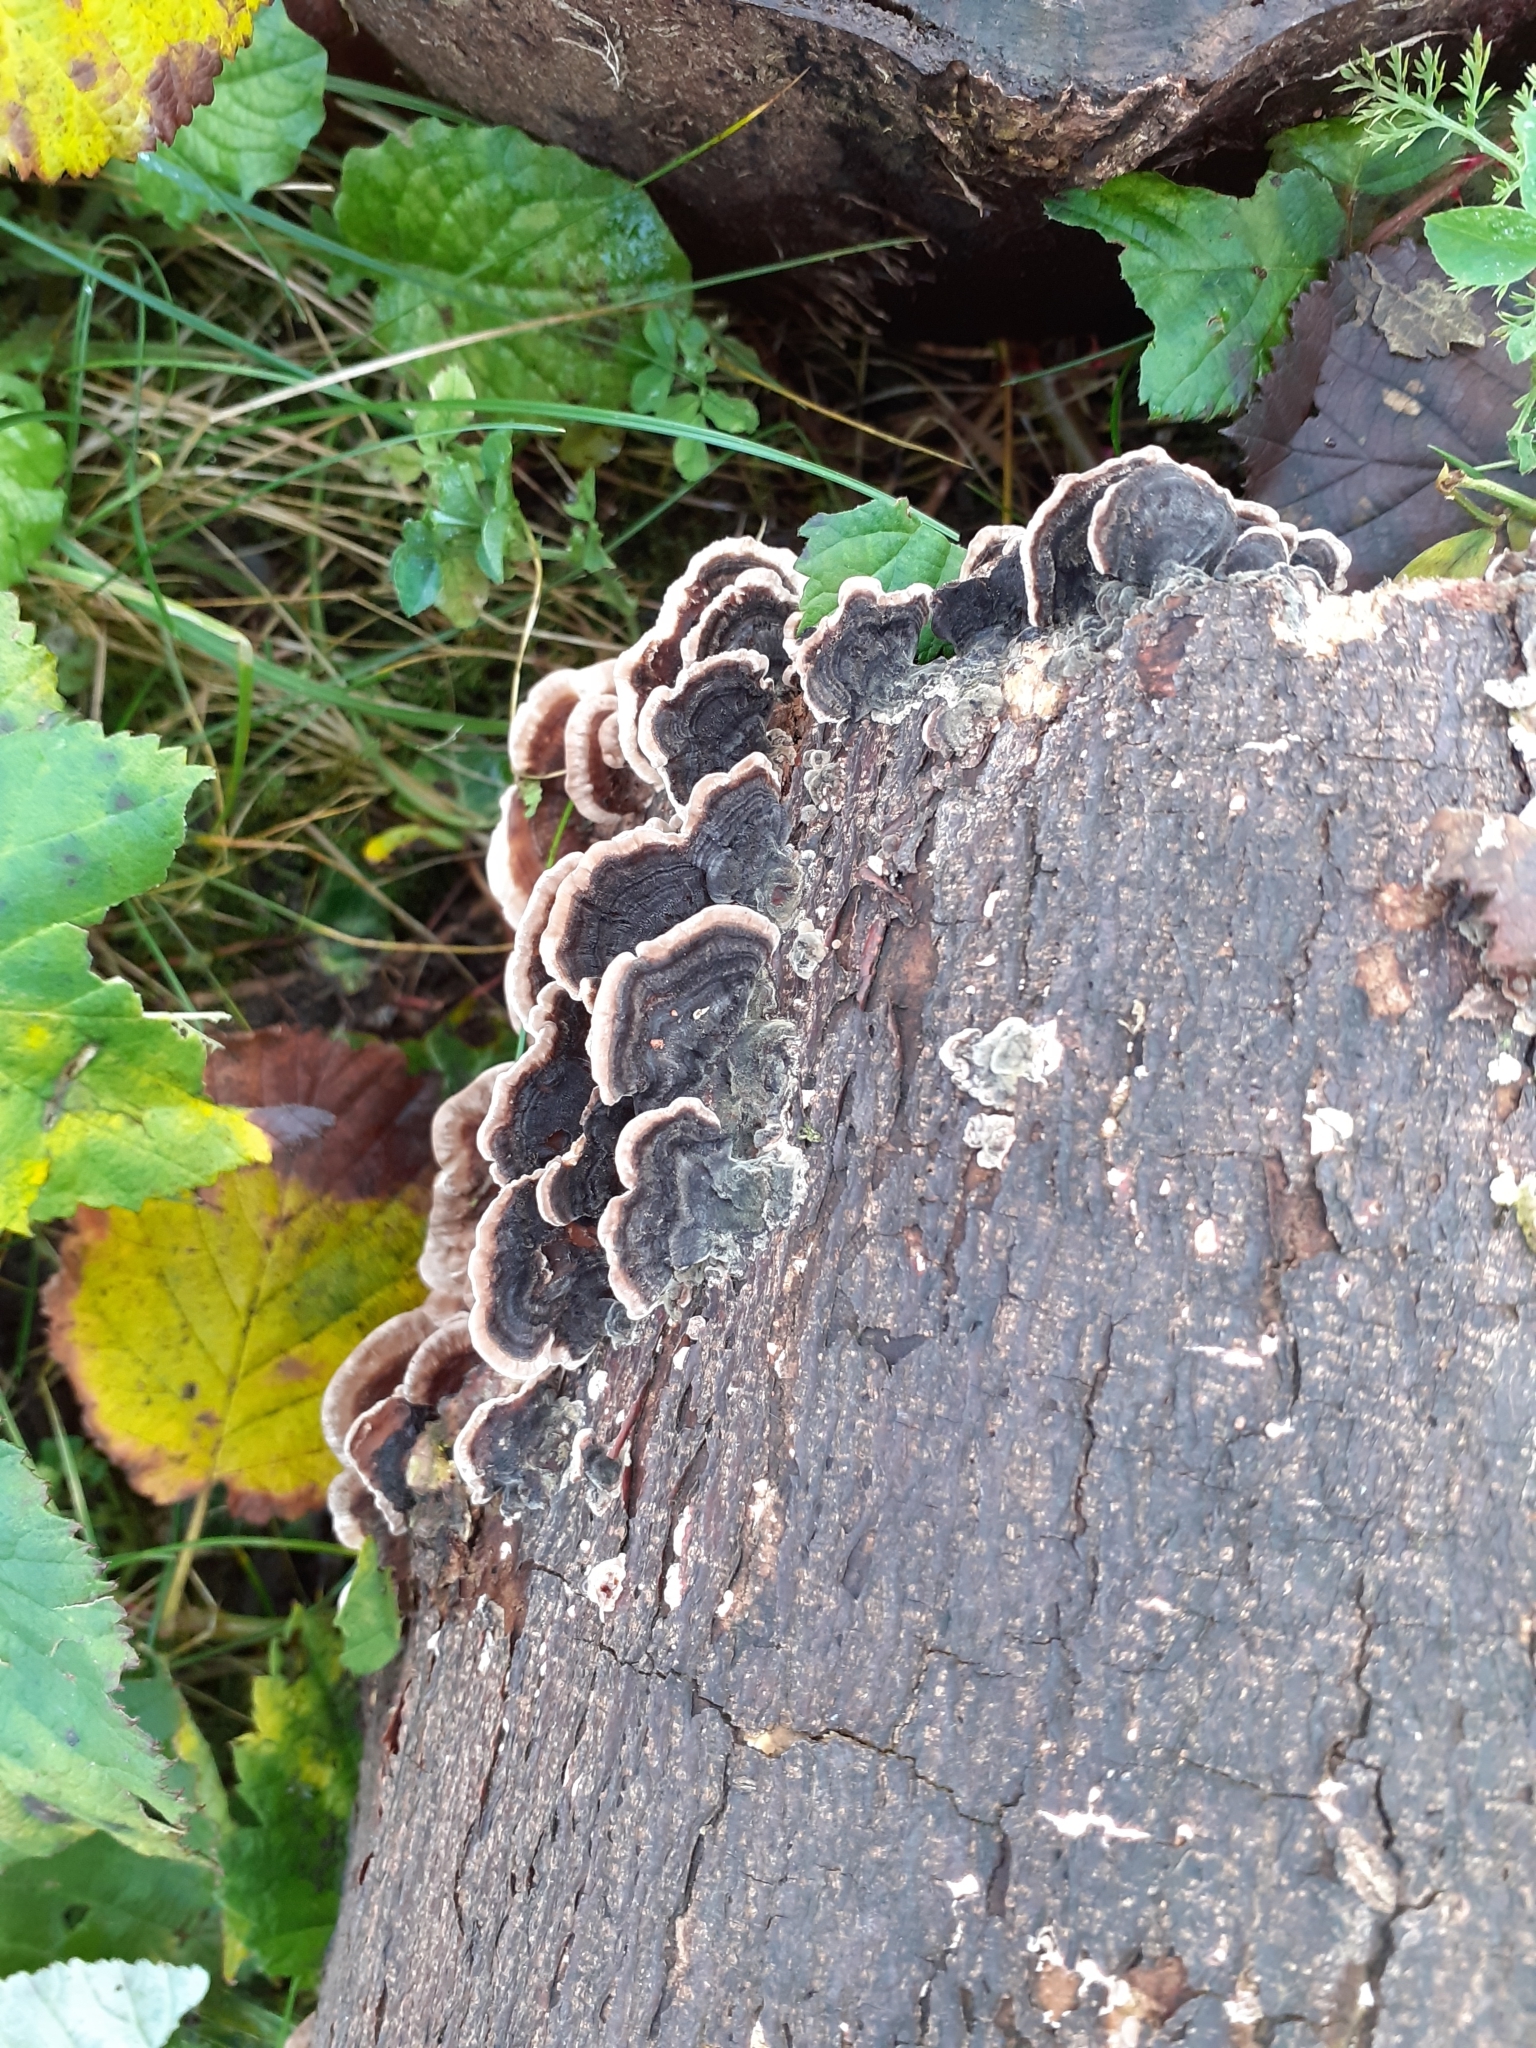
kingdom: Fungi
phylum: Basidiomycota
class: Agaricomycetes
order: Polyporales
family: Polyporaceae
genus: Trametes
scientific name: Trametes versicolor
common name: Turkeytail
